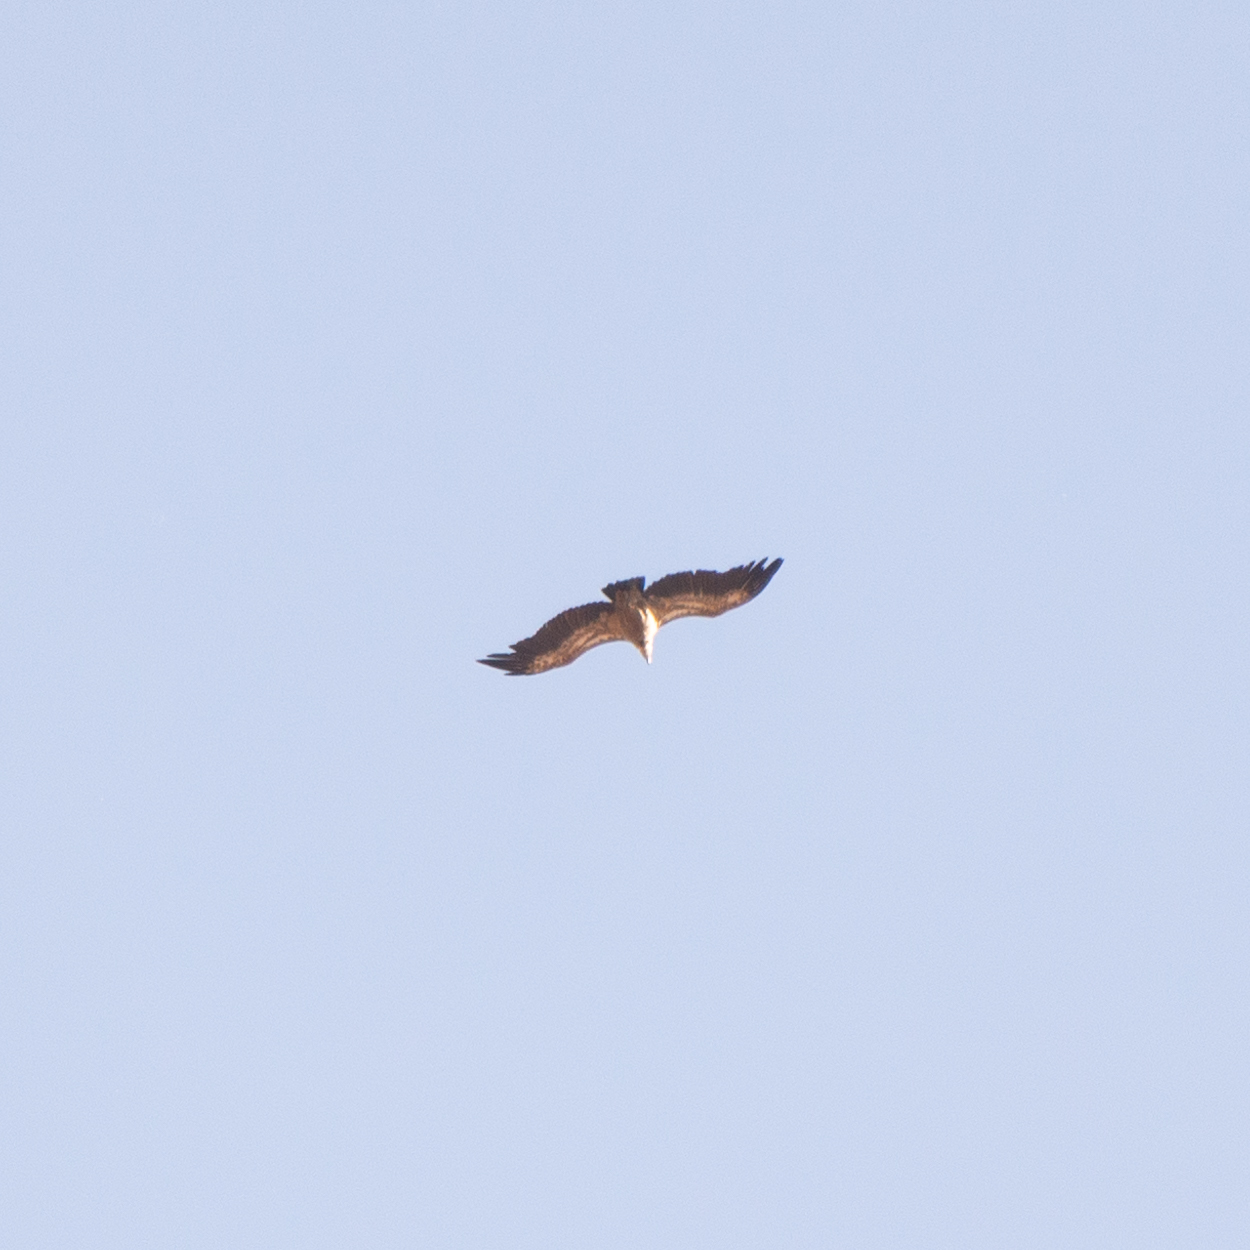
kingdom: Animalia
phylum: Chordata
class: Aves
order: Accipitriformes
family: Accipitridae
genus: Gyps
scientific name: Gyps fulvus
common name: Griffon vulture
